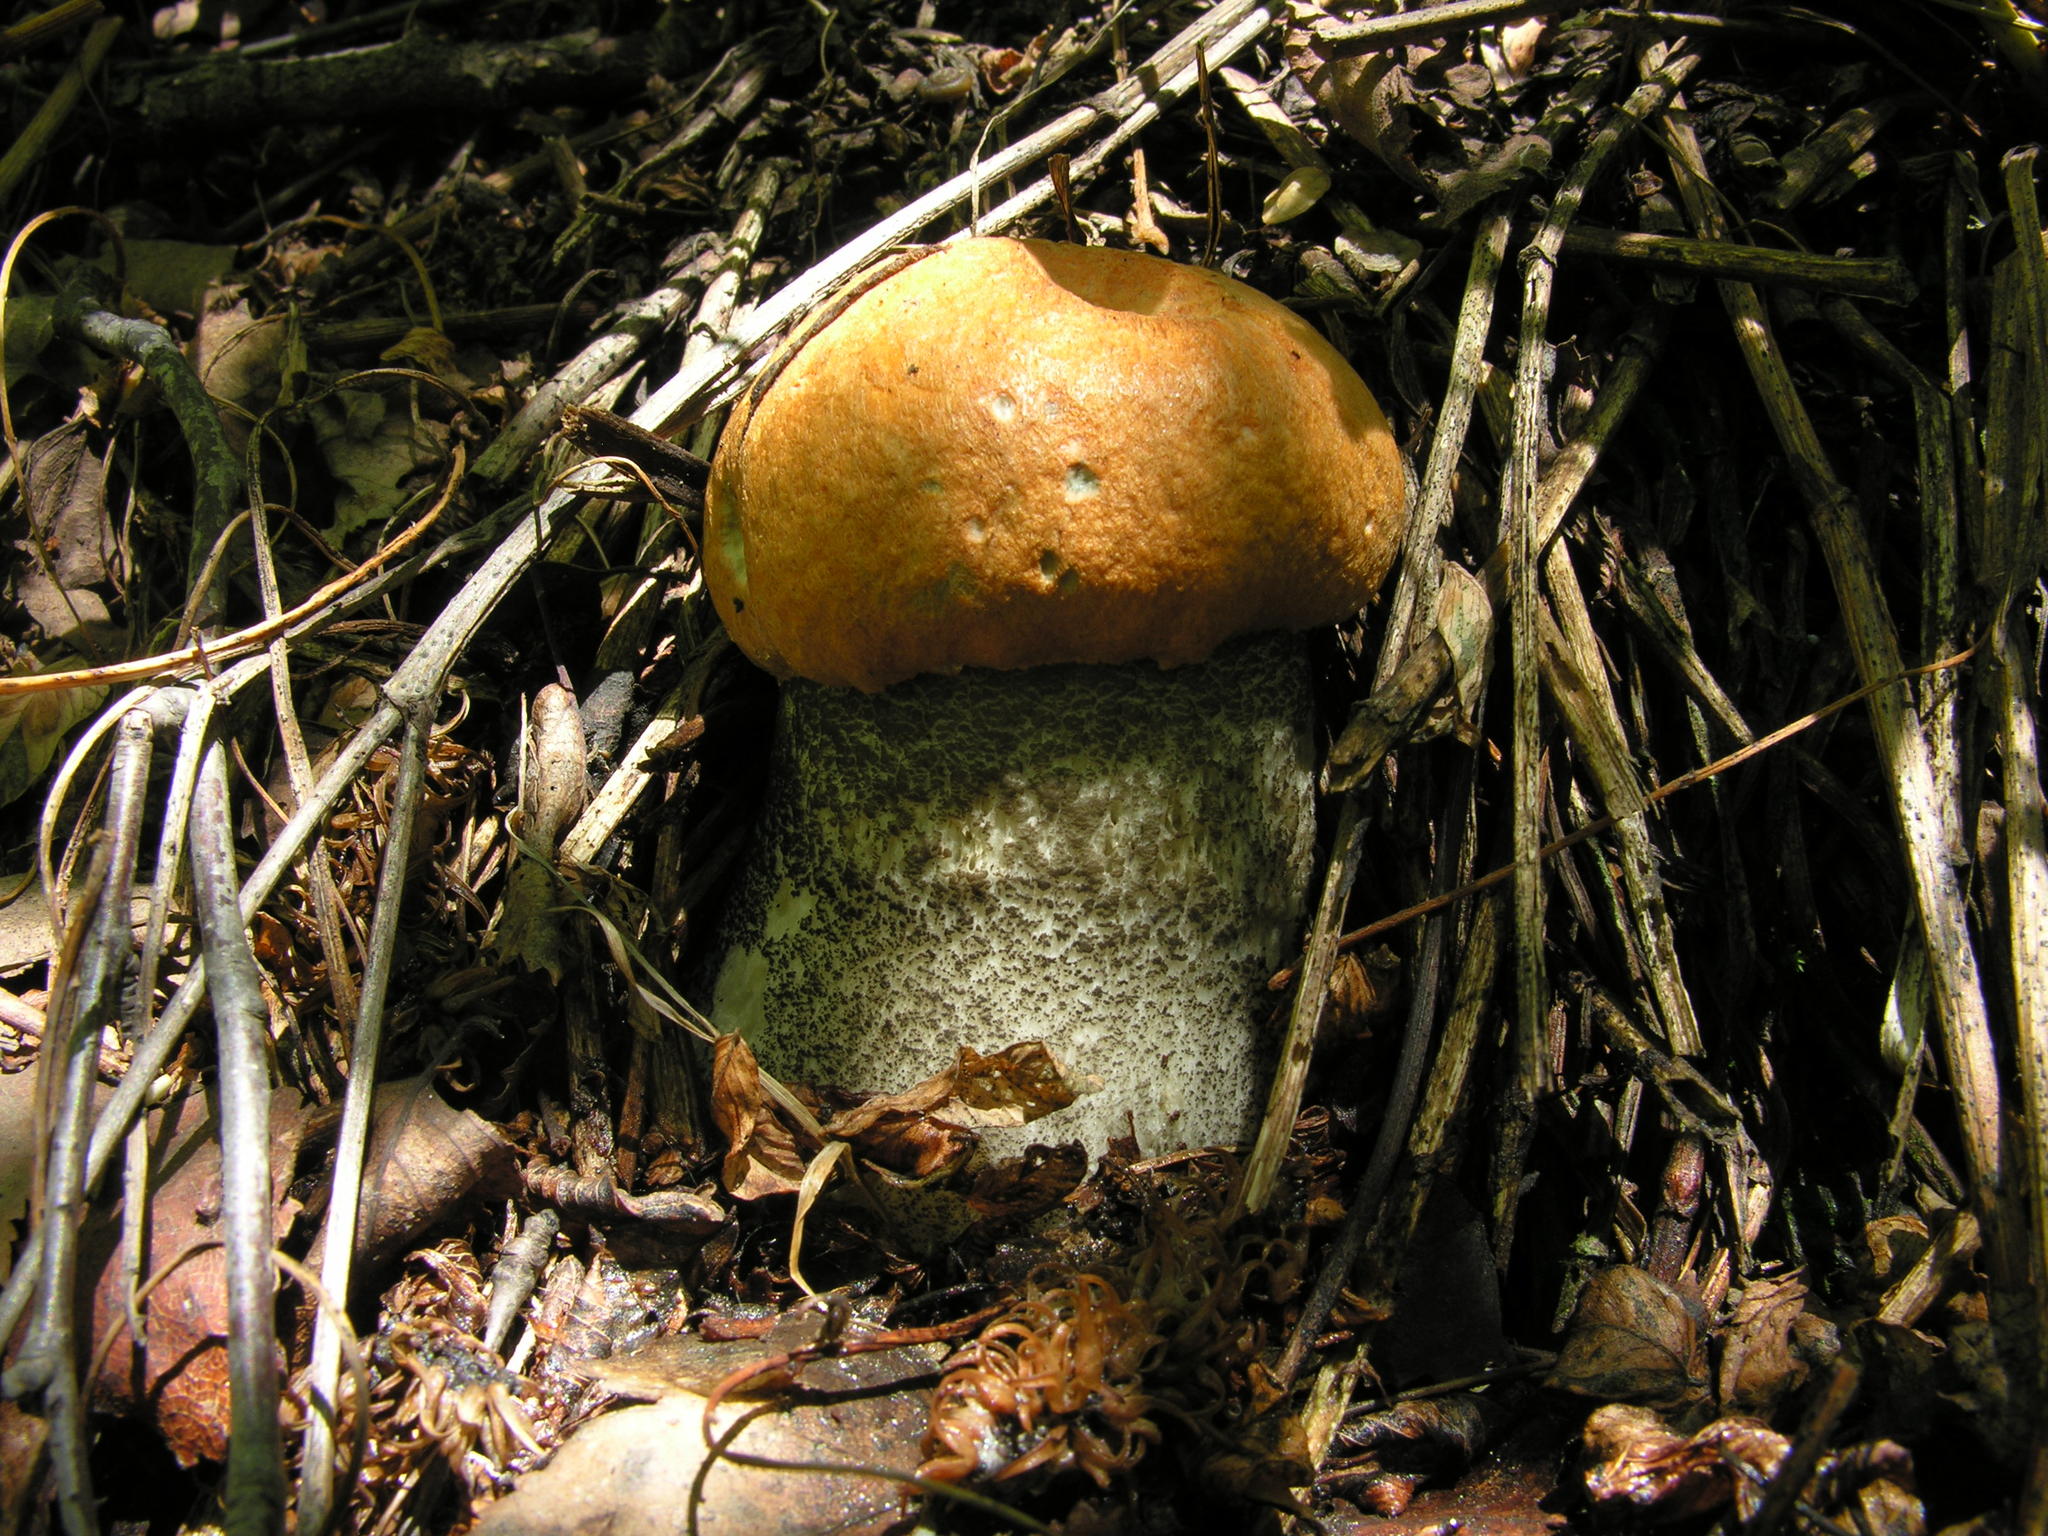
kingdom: Fungi
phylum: Basidiomycota
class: Agaricomycetes
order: Boletales
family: Boletaceae
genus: Leccinum
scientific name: Leccinum versipelle
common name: Orange birch bolete
